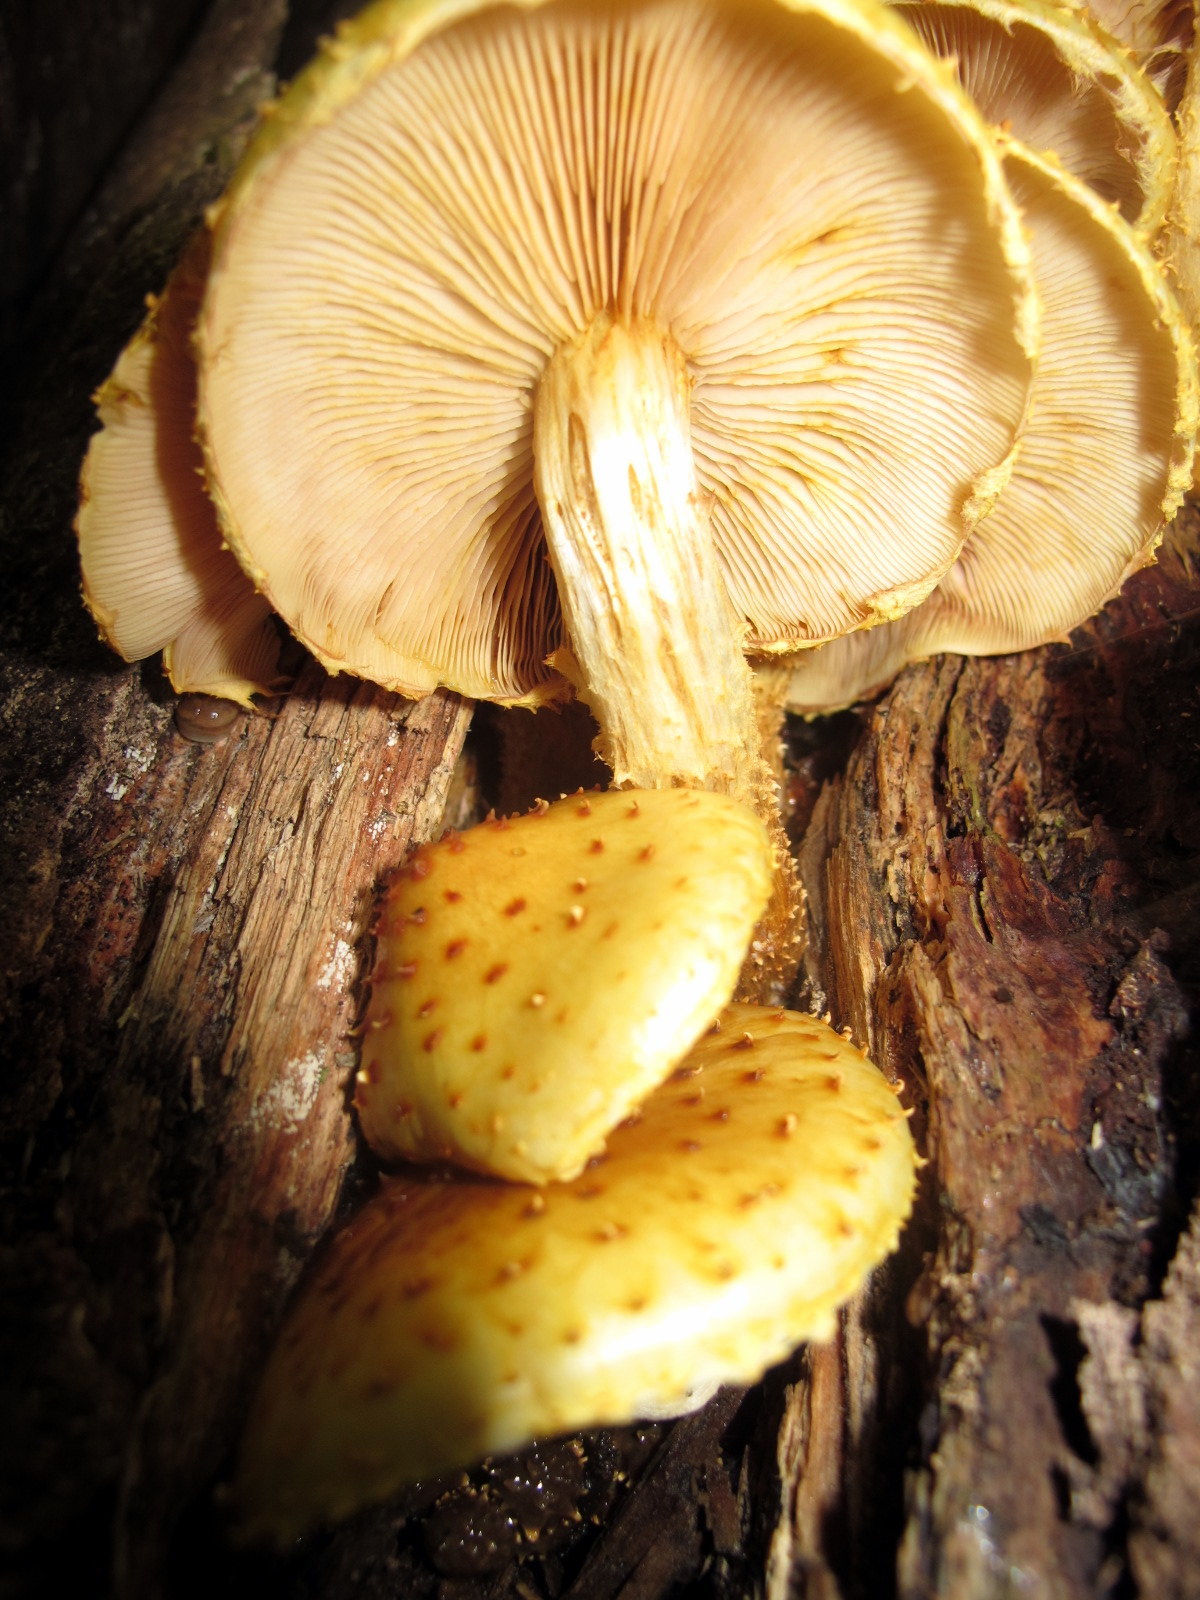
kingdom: Fungi
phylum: Basidiomycota
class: Agaricomycetes
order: Agaricales
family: Strophariaceae
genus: Pholiota
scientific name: Pholiota aurivella
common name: Golden scalycap
